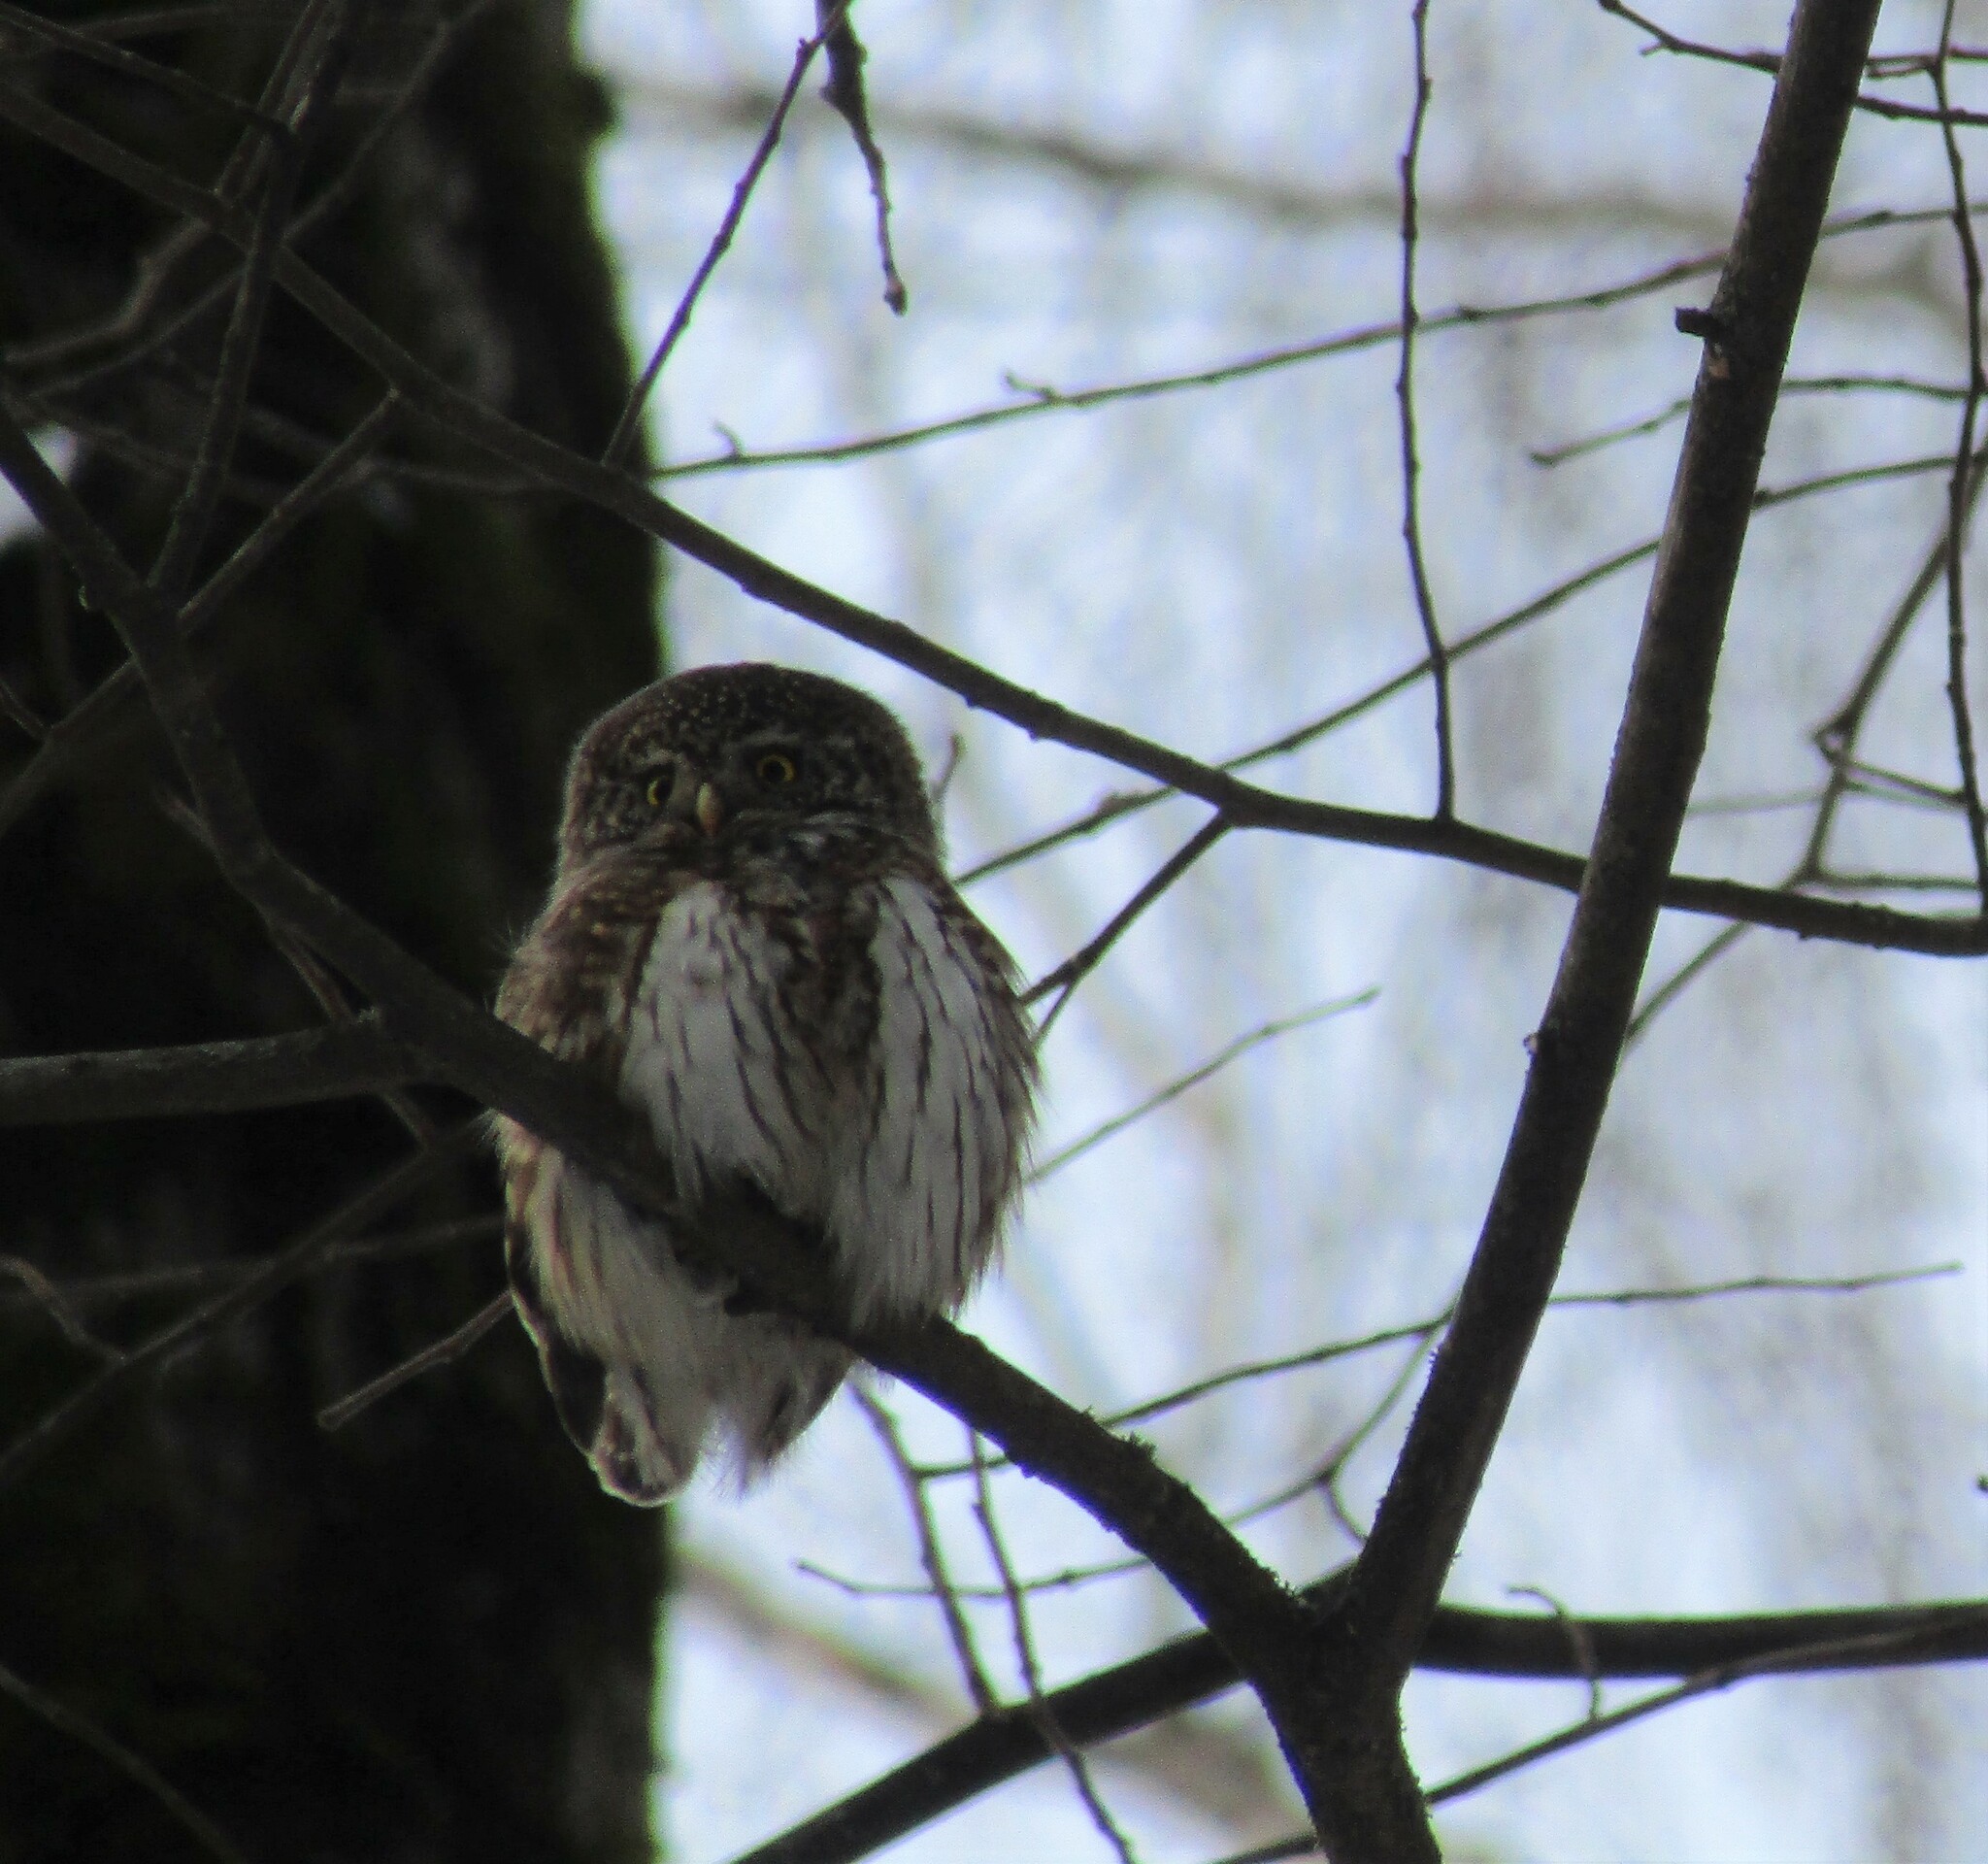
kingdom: Animalia
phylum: Chordata
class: Aves
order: Strigiformes
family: Strigidae
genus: Glaucidium
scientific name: Glaucidium passerinum
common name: Eurasian pygmy owl
